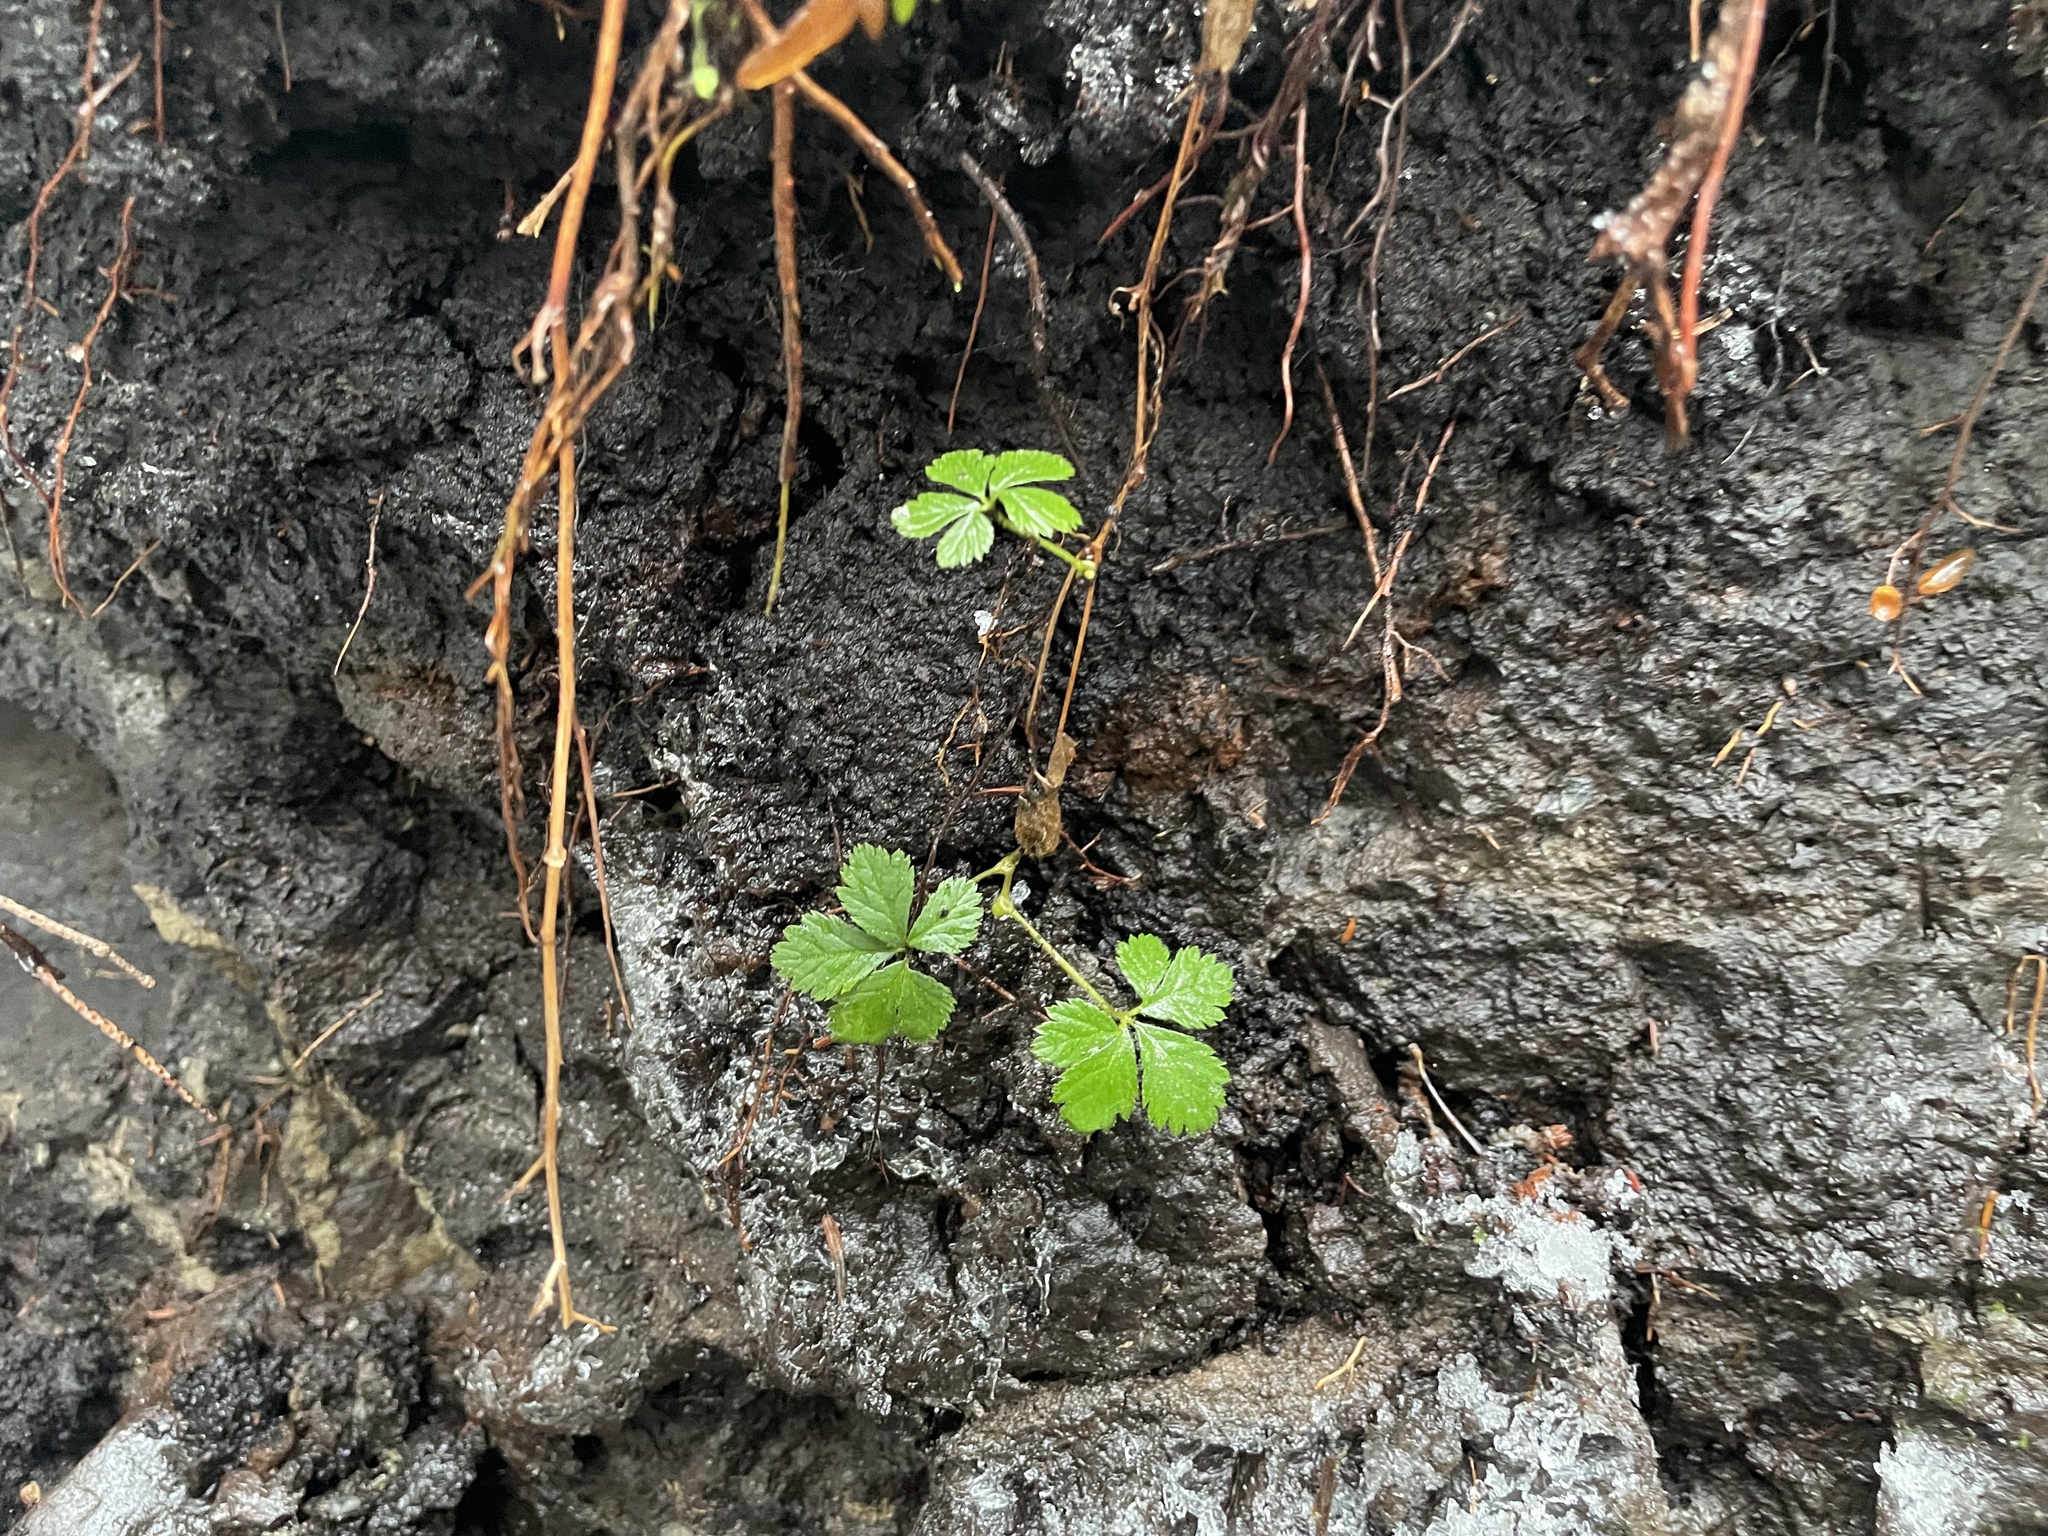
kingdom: Plantae
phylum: Tracheophyta
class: Magnoliopsida
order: Rosales
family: Rosaceae
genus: Rubus
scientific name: Rubus pedatus
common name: Creeping raspberry
